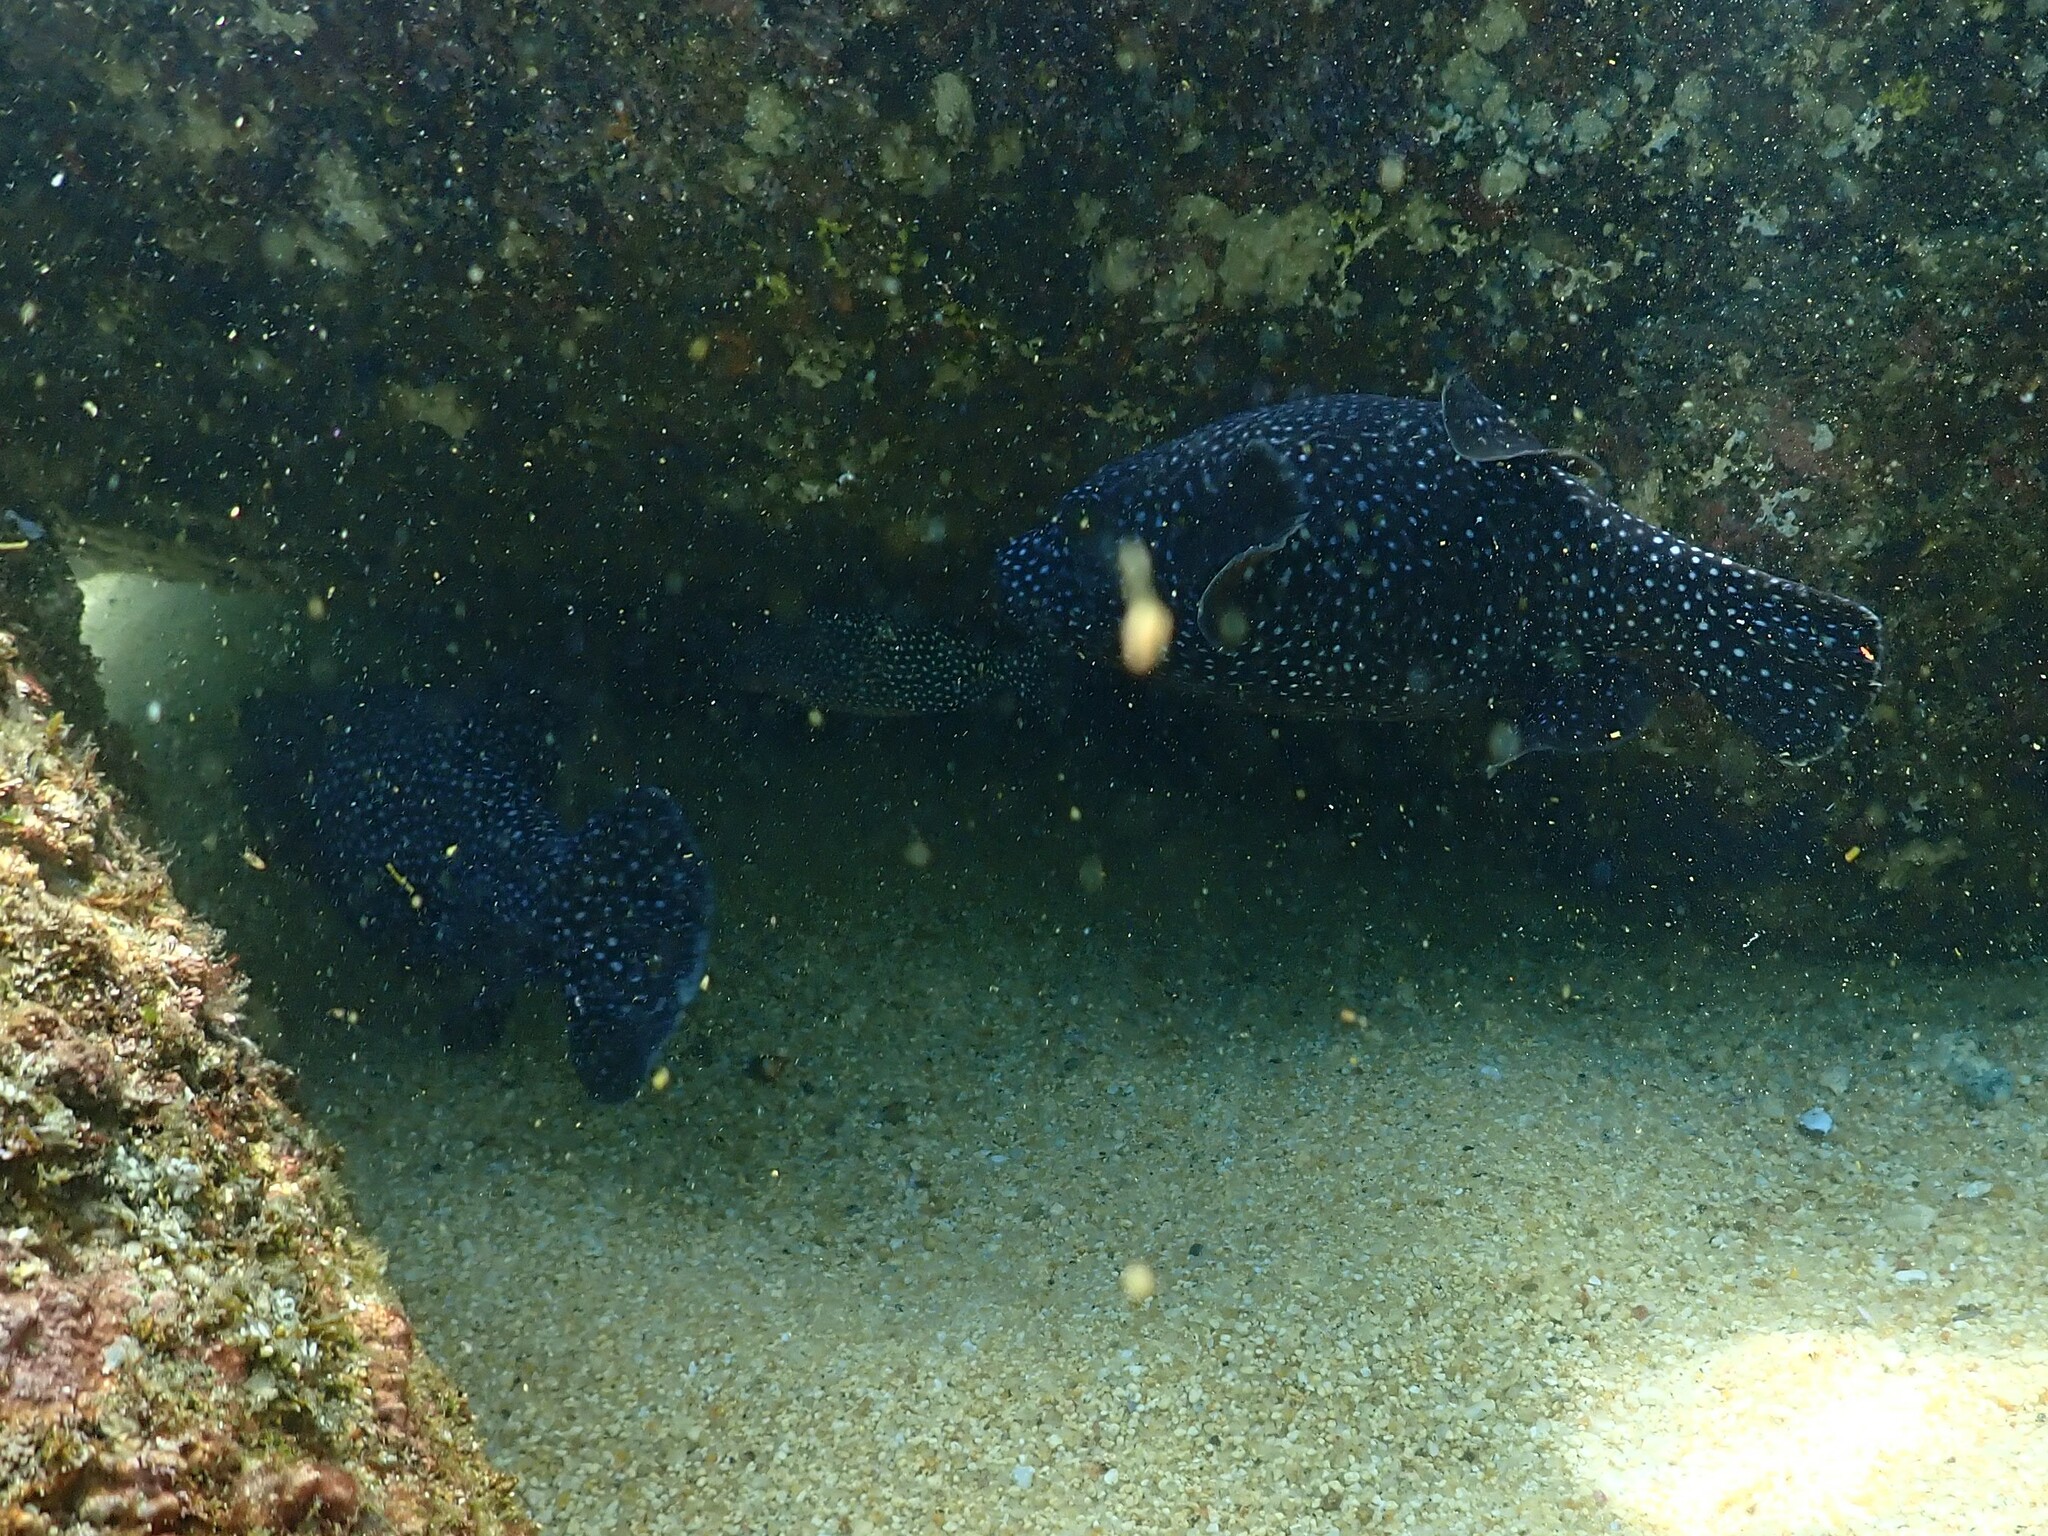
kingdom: Animalia
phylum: Chordata
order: Tetraodontiformes
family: Tetraodontidae
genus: Arothron
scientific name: Arothron meleagris
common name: Guinea-fowl pufferfish
